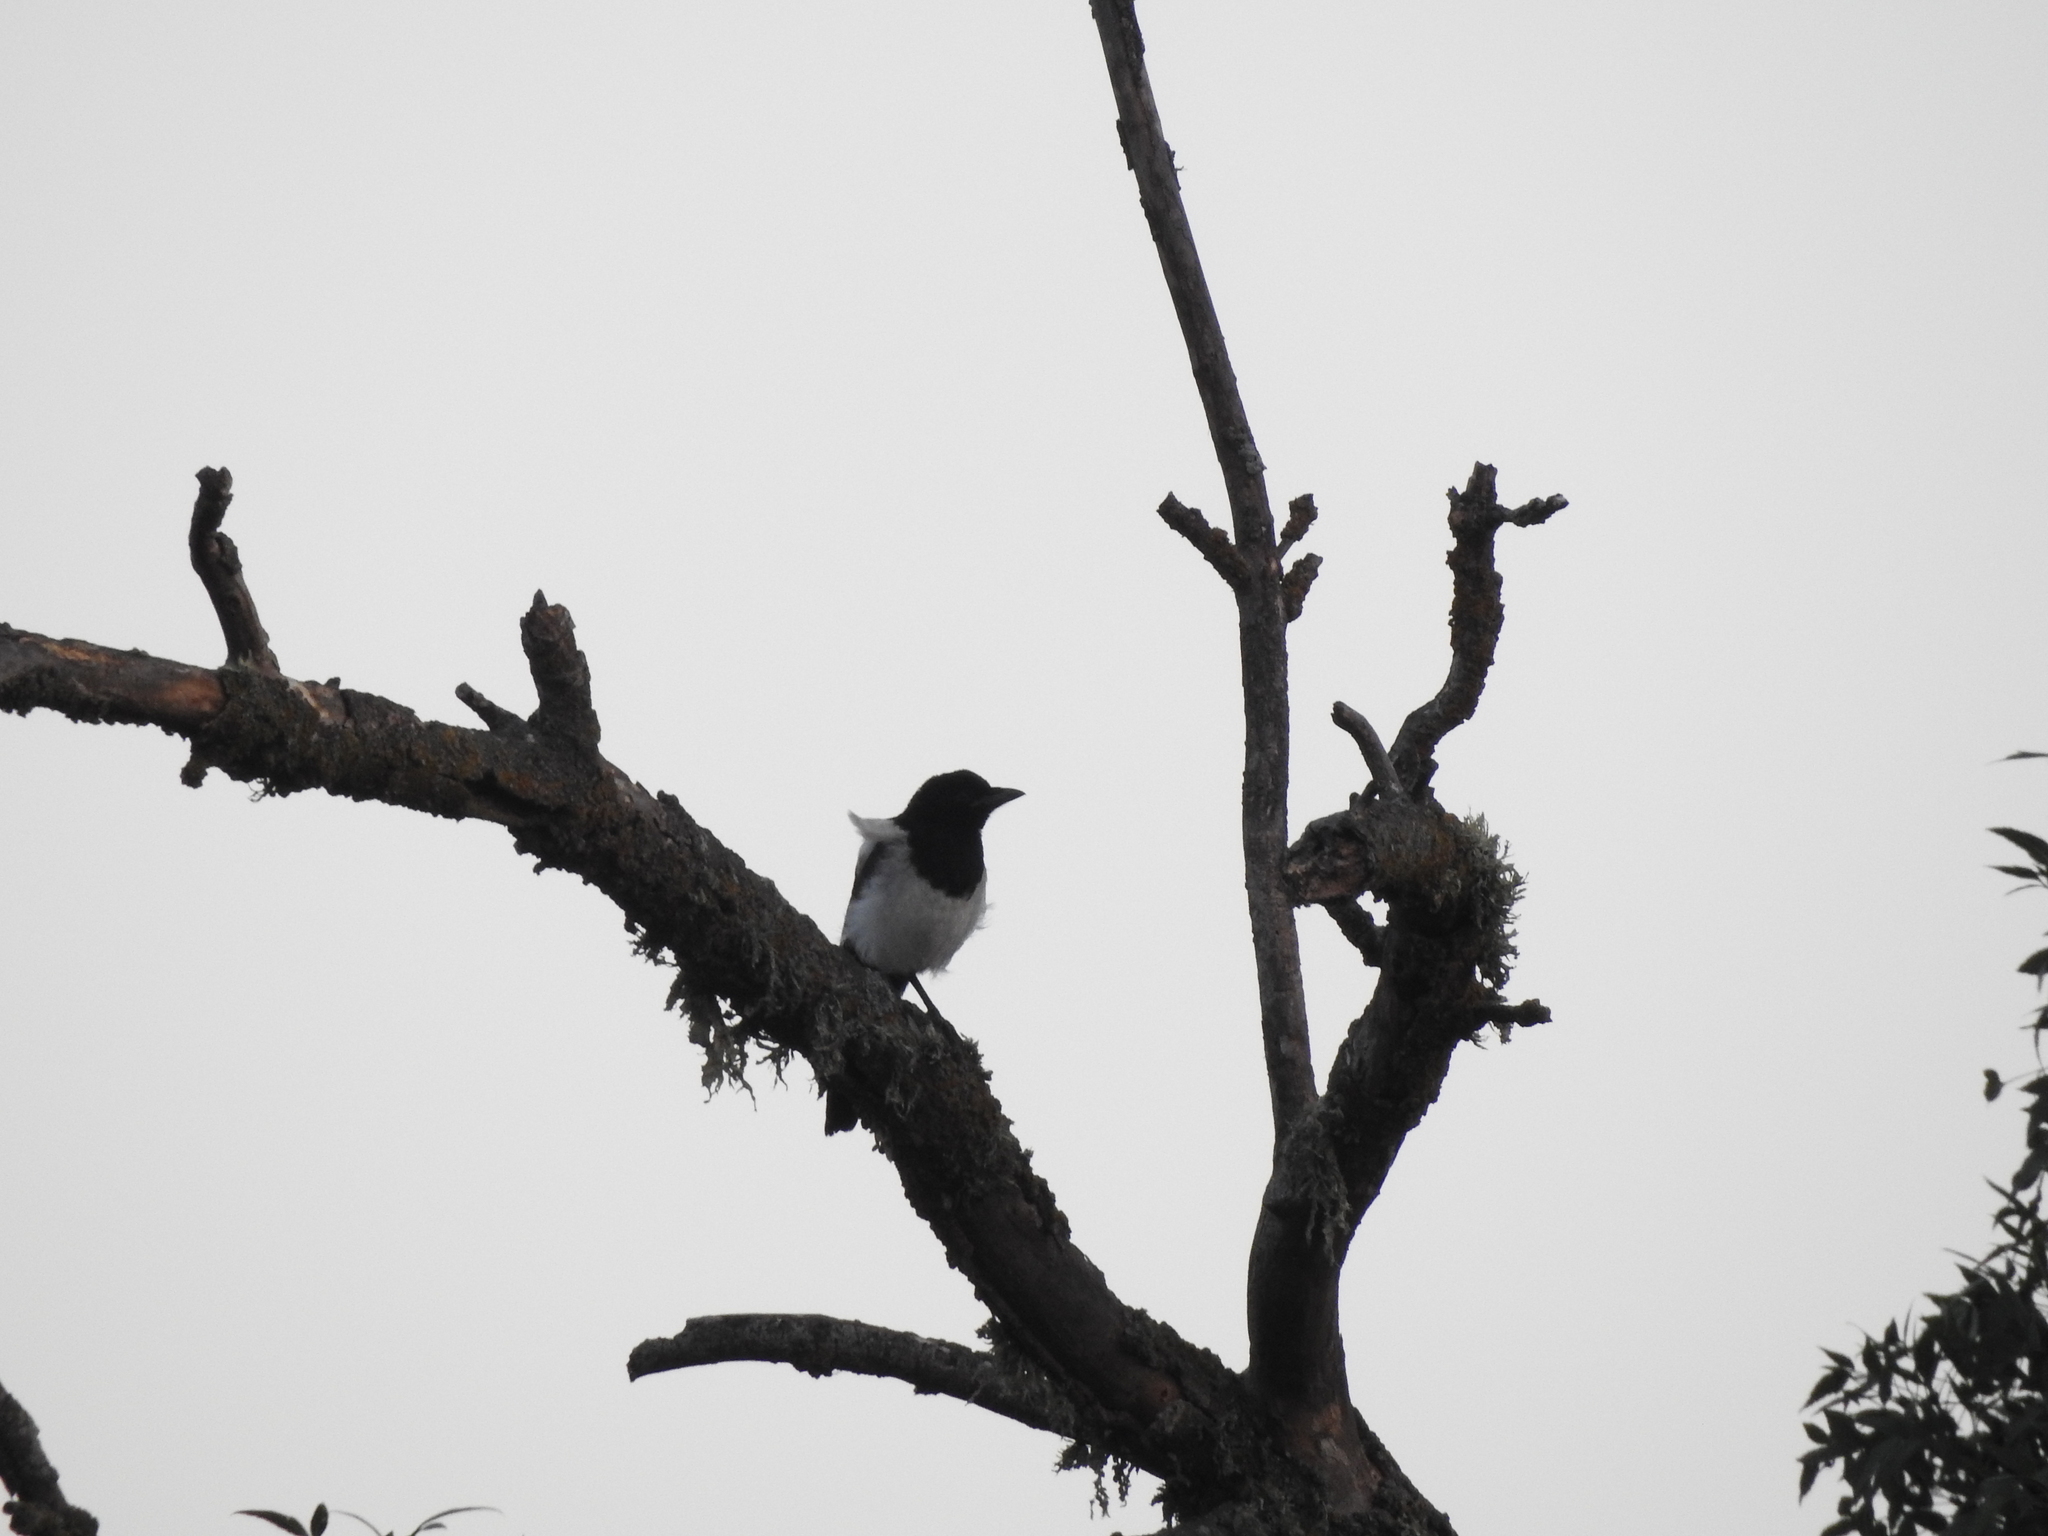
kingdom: Animalia
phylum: Chordata
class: Aves
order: Passeriformes
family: Corvidae
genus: Pica
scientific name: Pica pica
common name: Eurasian magpie
